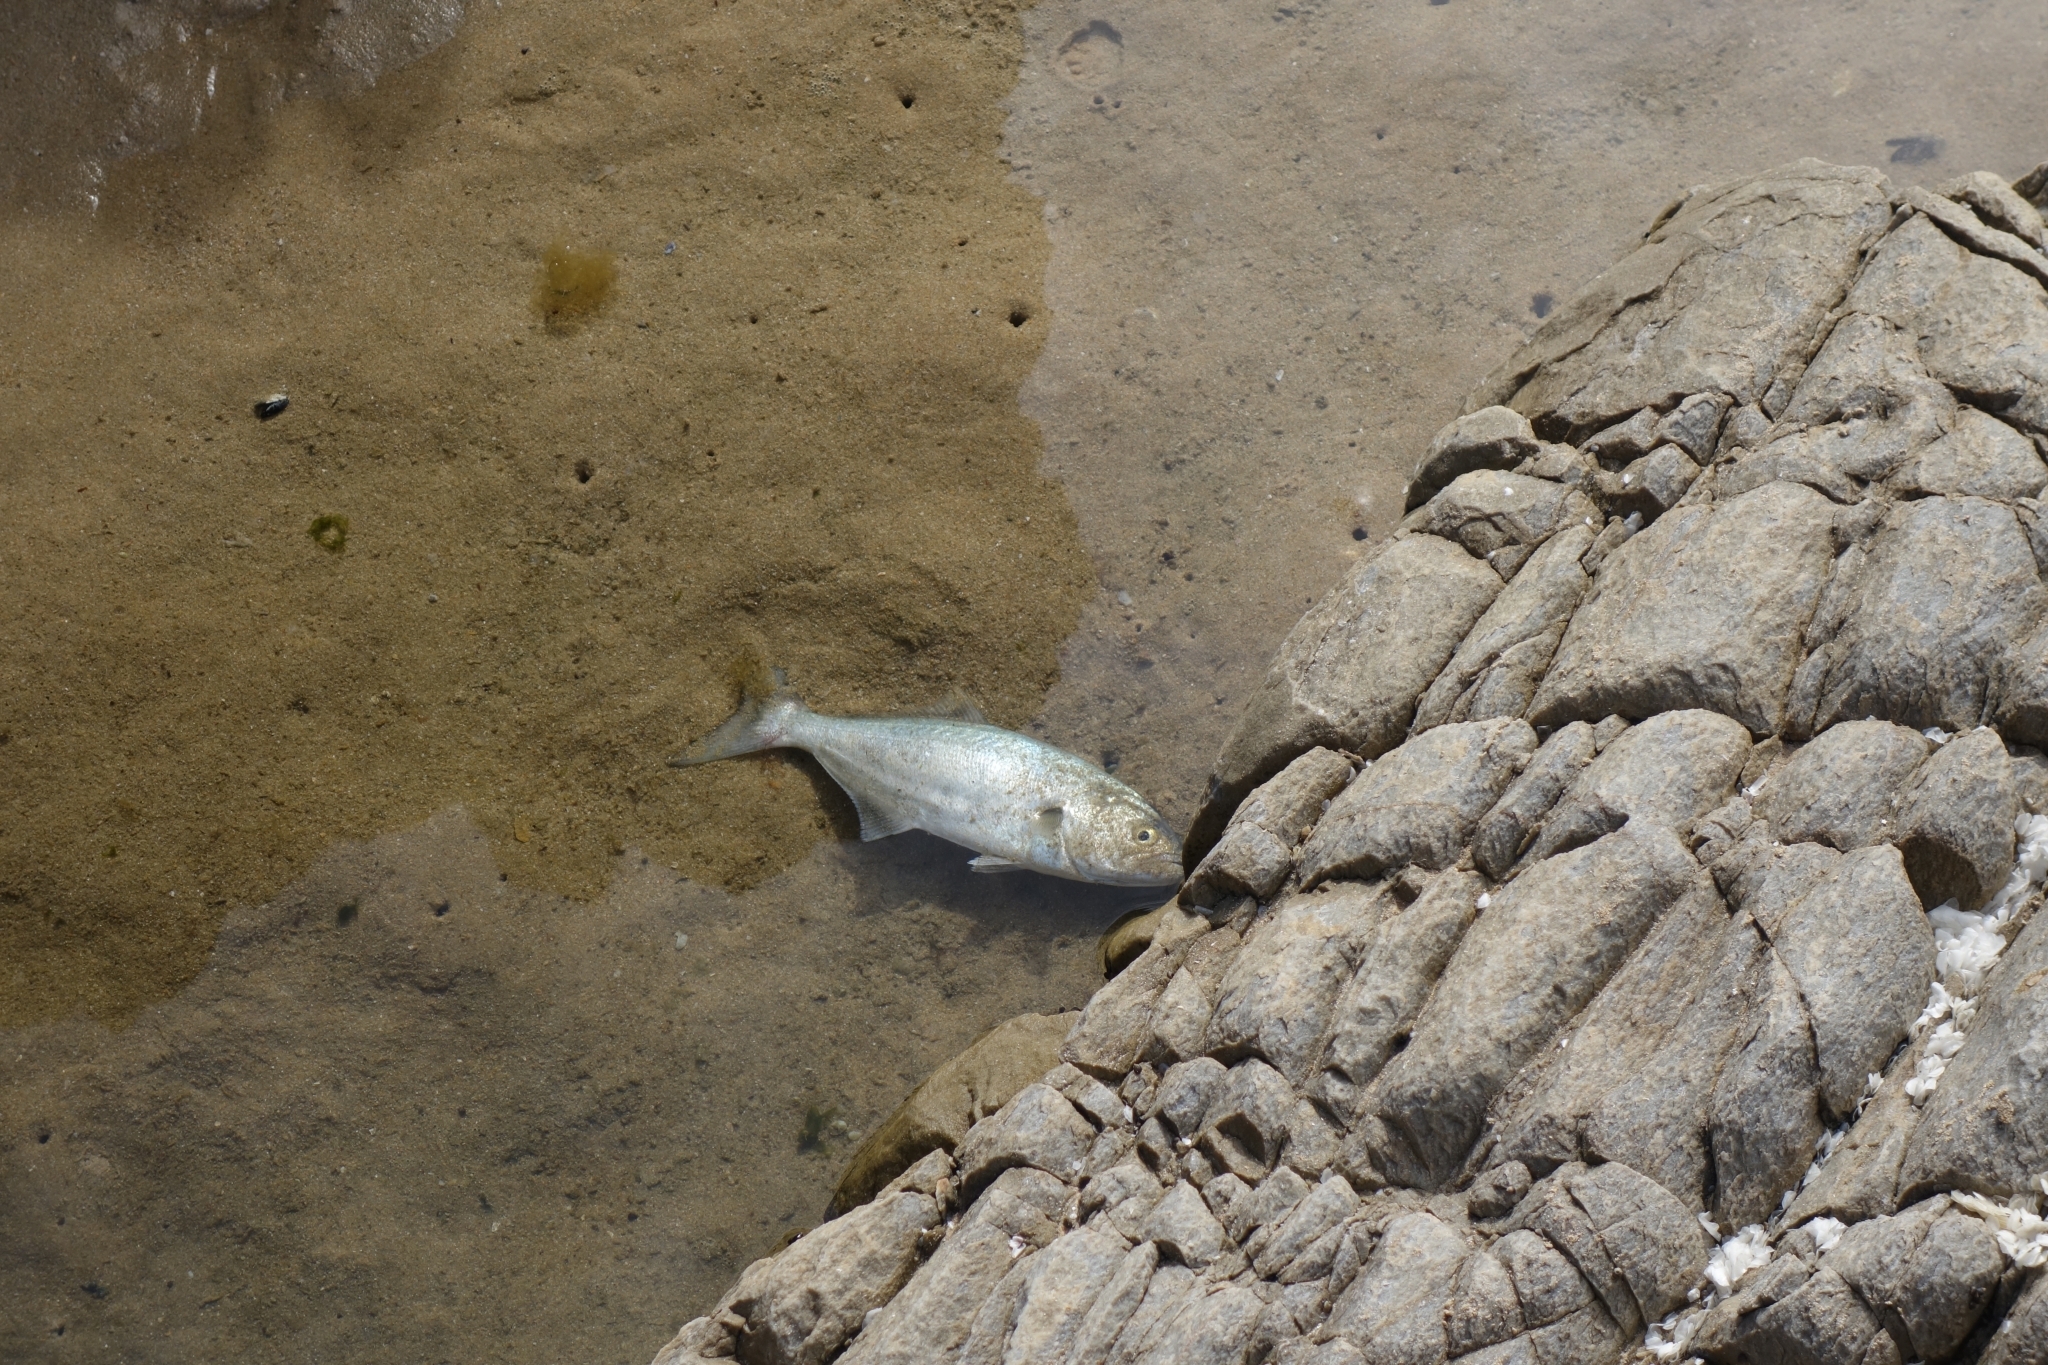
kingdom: Animalia
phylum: Chordata
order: Perciformes
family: Pomatomidae
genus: Pomatomus
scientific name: Pomatomus saltatrix
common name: Bluefish
